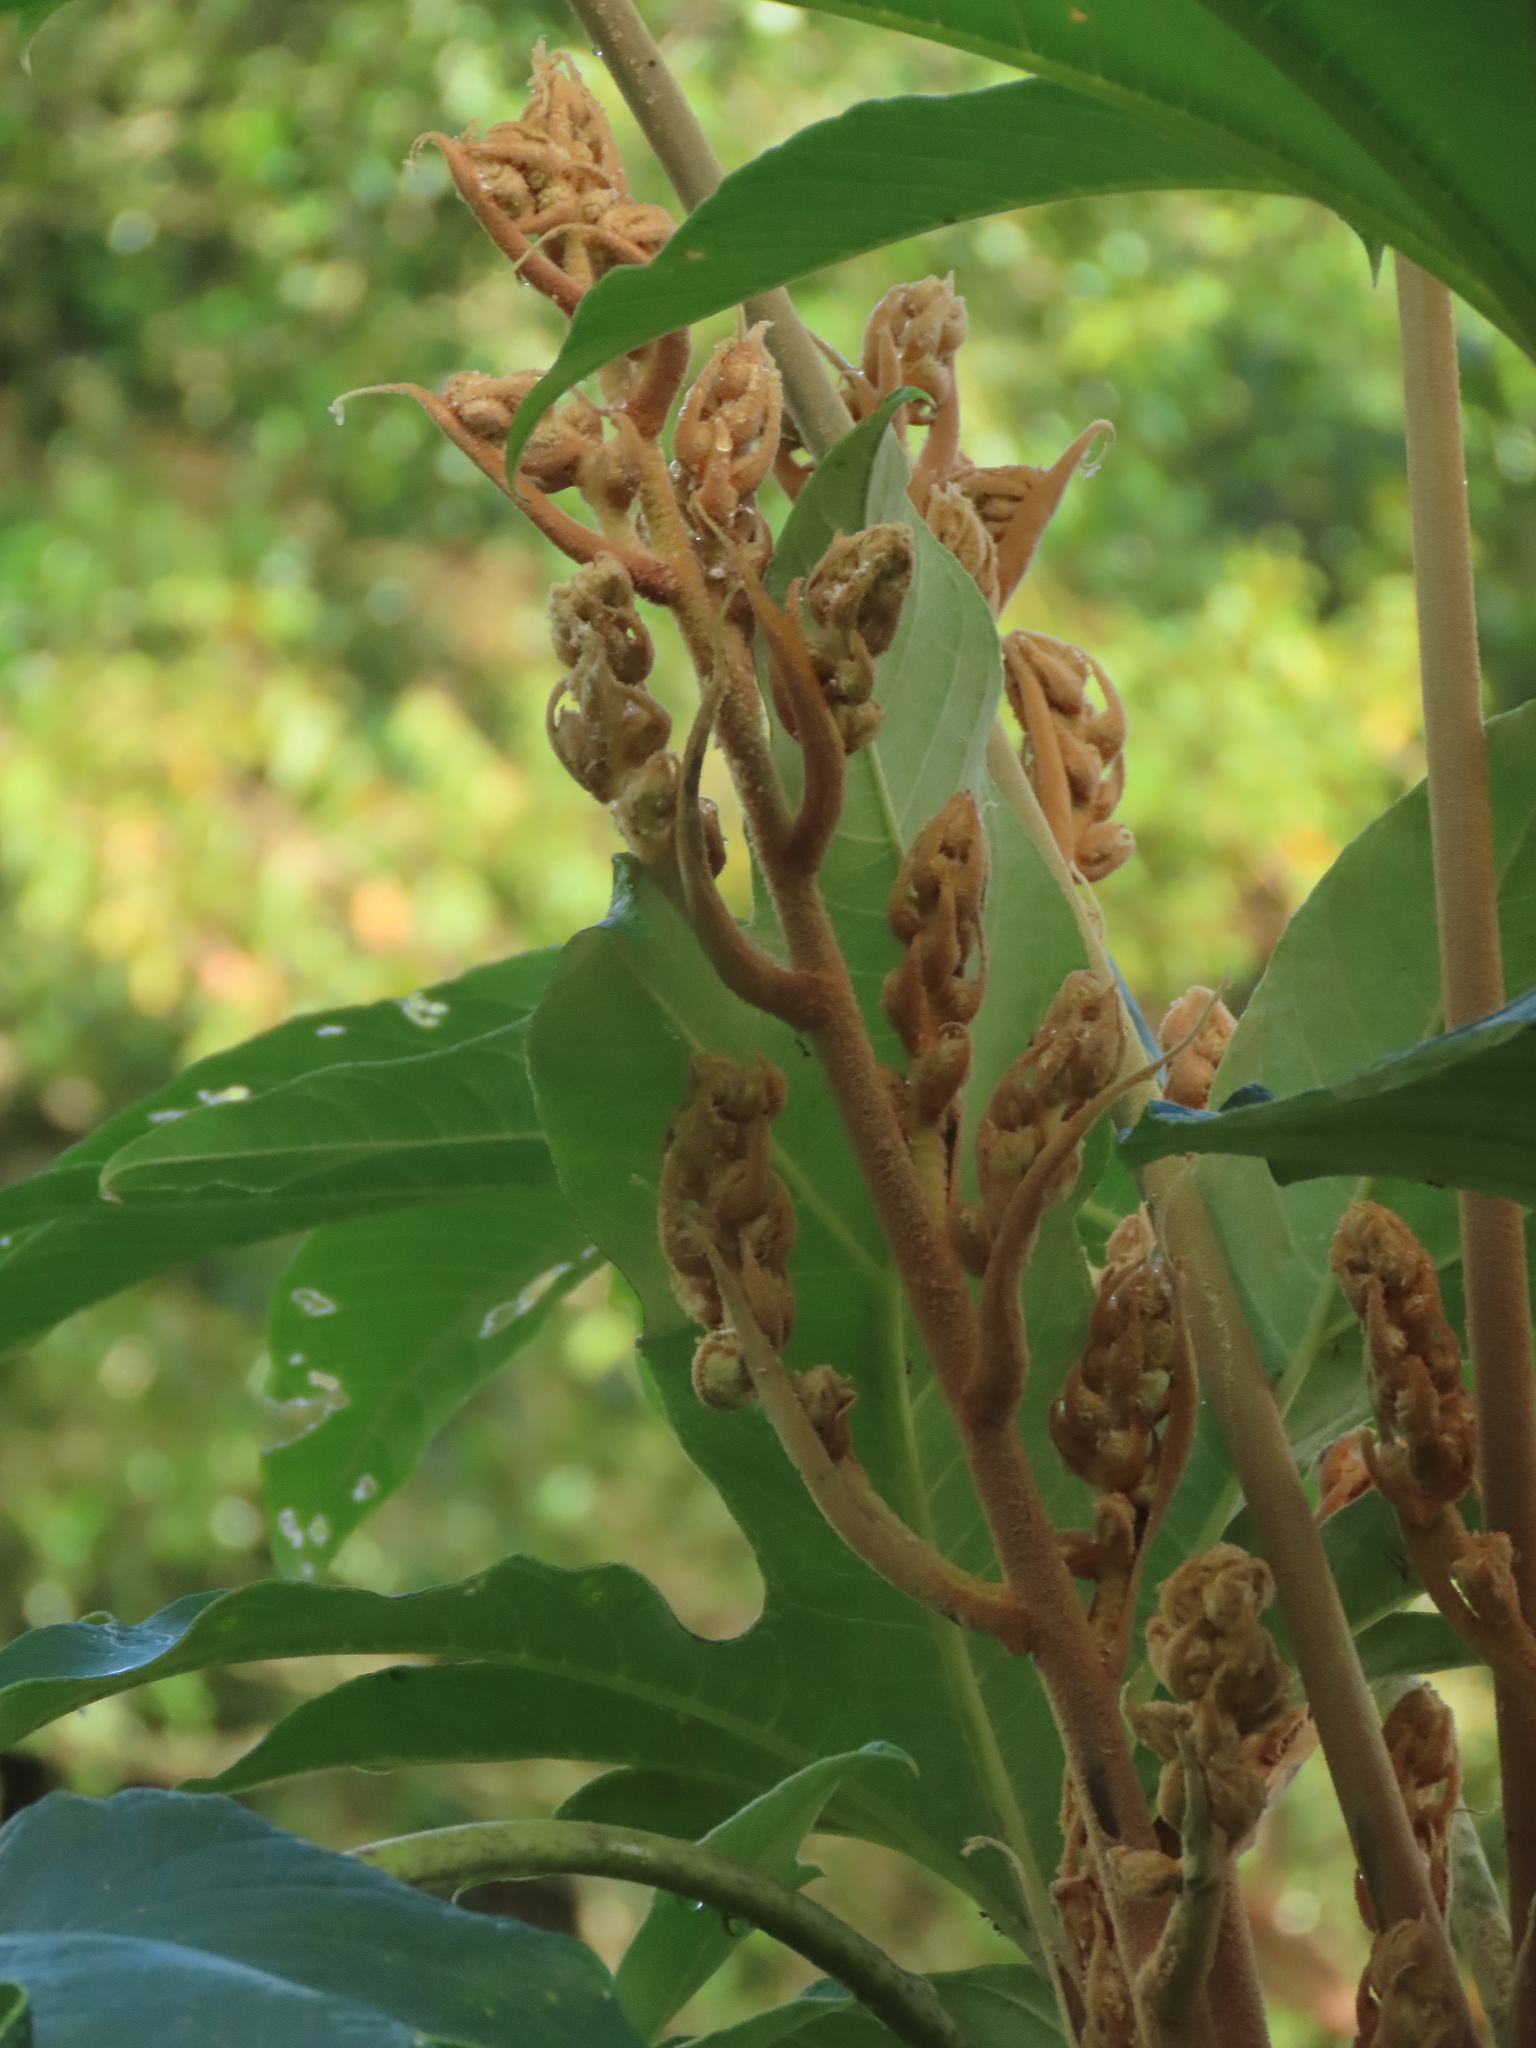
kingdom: Plantae
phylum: Tracheophyta
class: Magnoliopsida
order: Apiales
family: Araliaceae
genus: Tetrapanax
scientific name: Tetrapanax papyrifer
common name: Rice-paper plant
